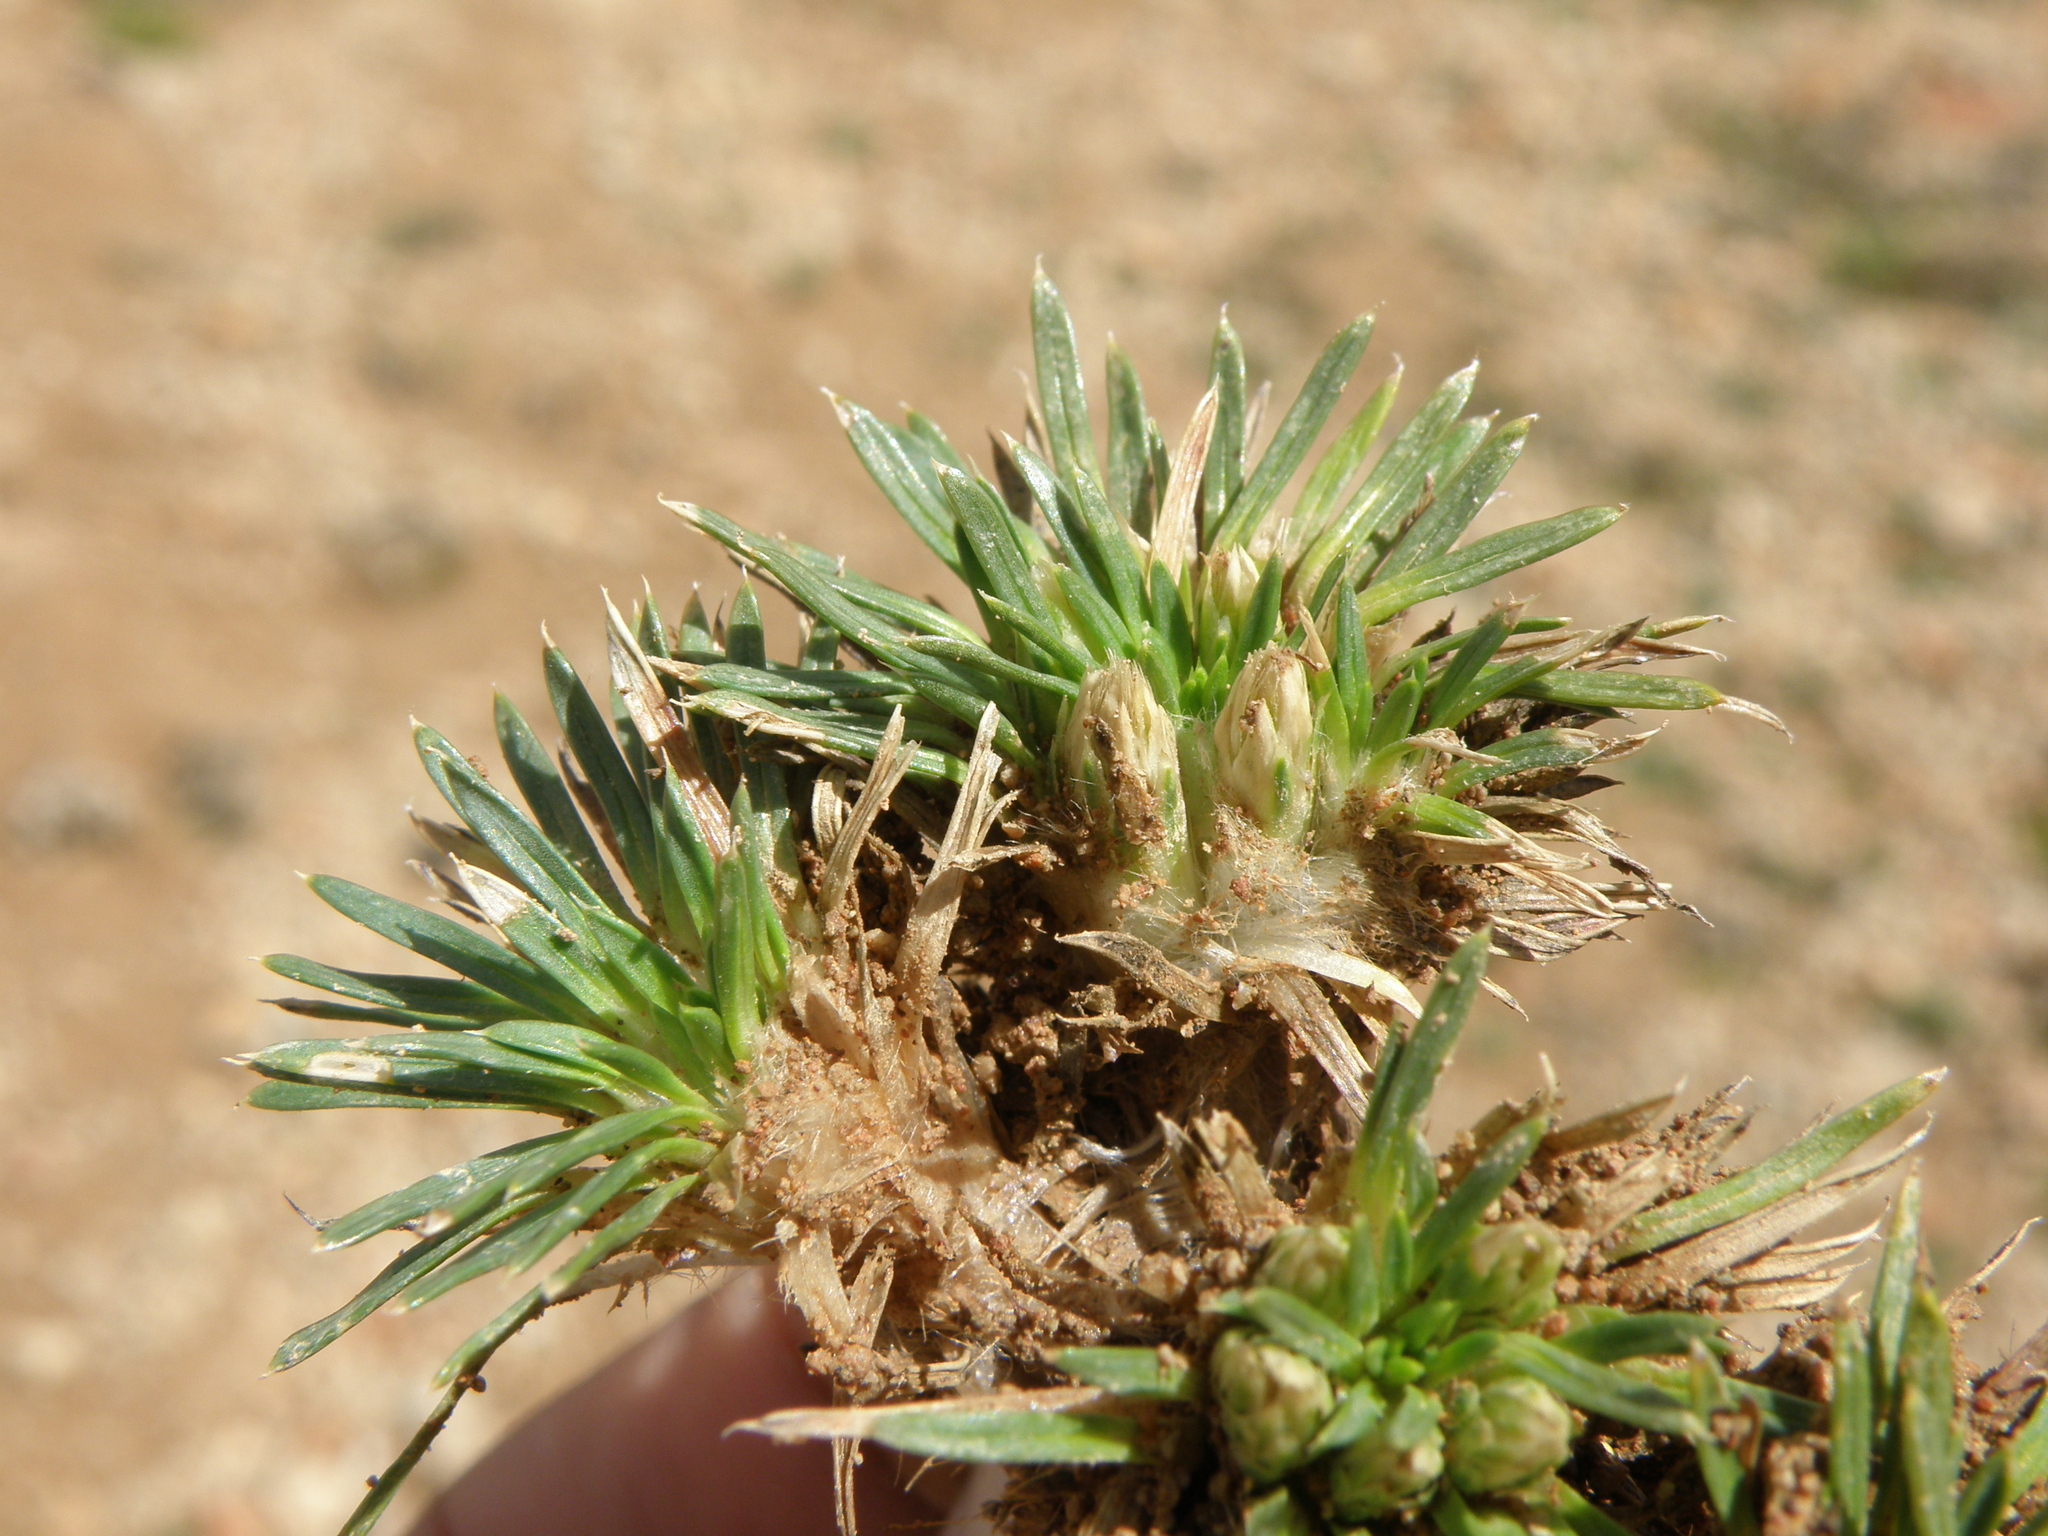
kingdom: Plantae
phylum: Tracheophyta
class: Magnoliopsida
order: Asterales
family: Asteraceae
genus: Novenia
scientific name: Novenia tunariensis
